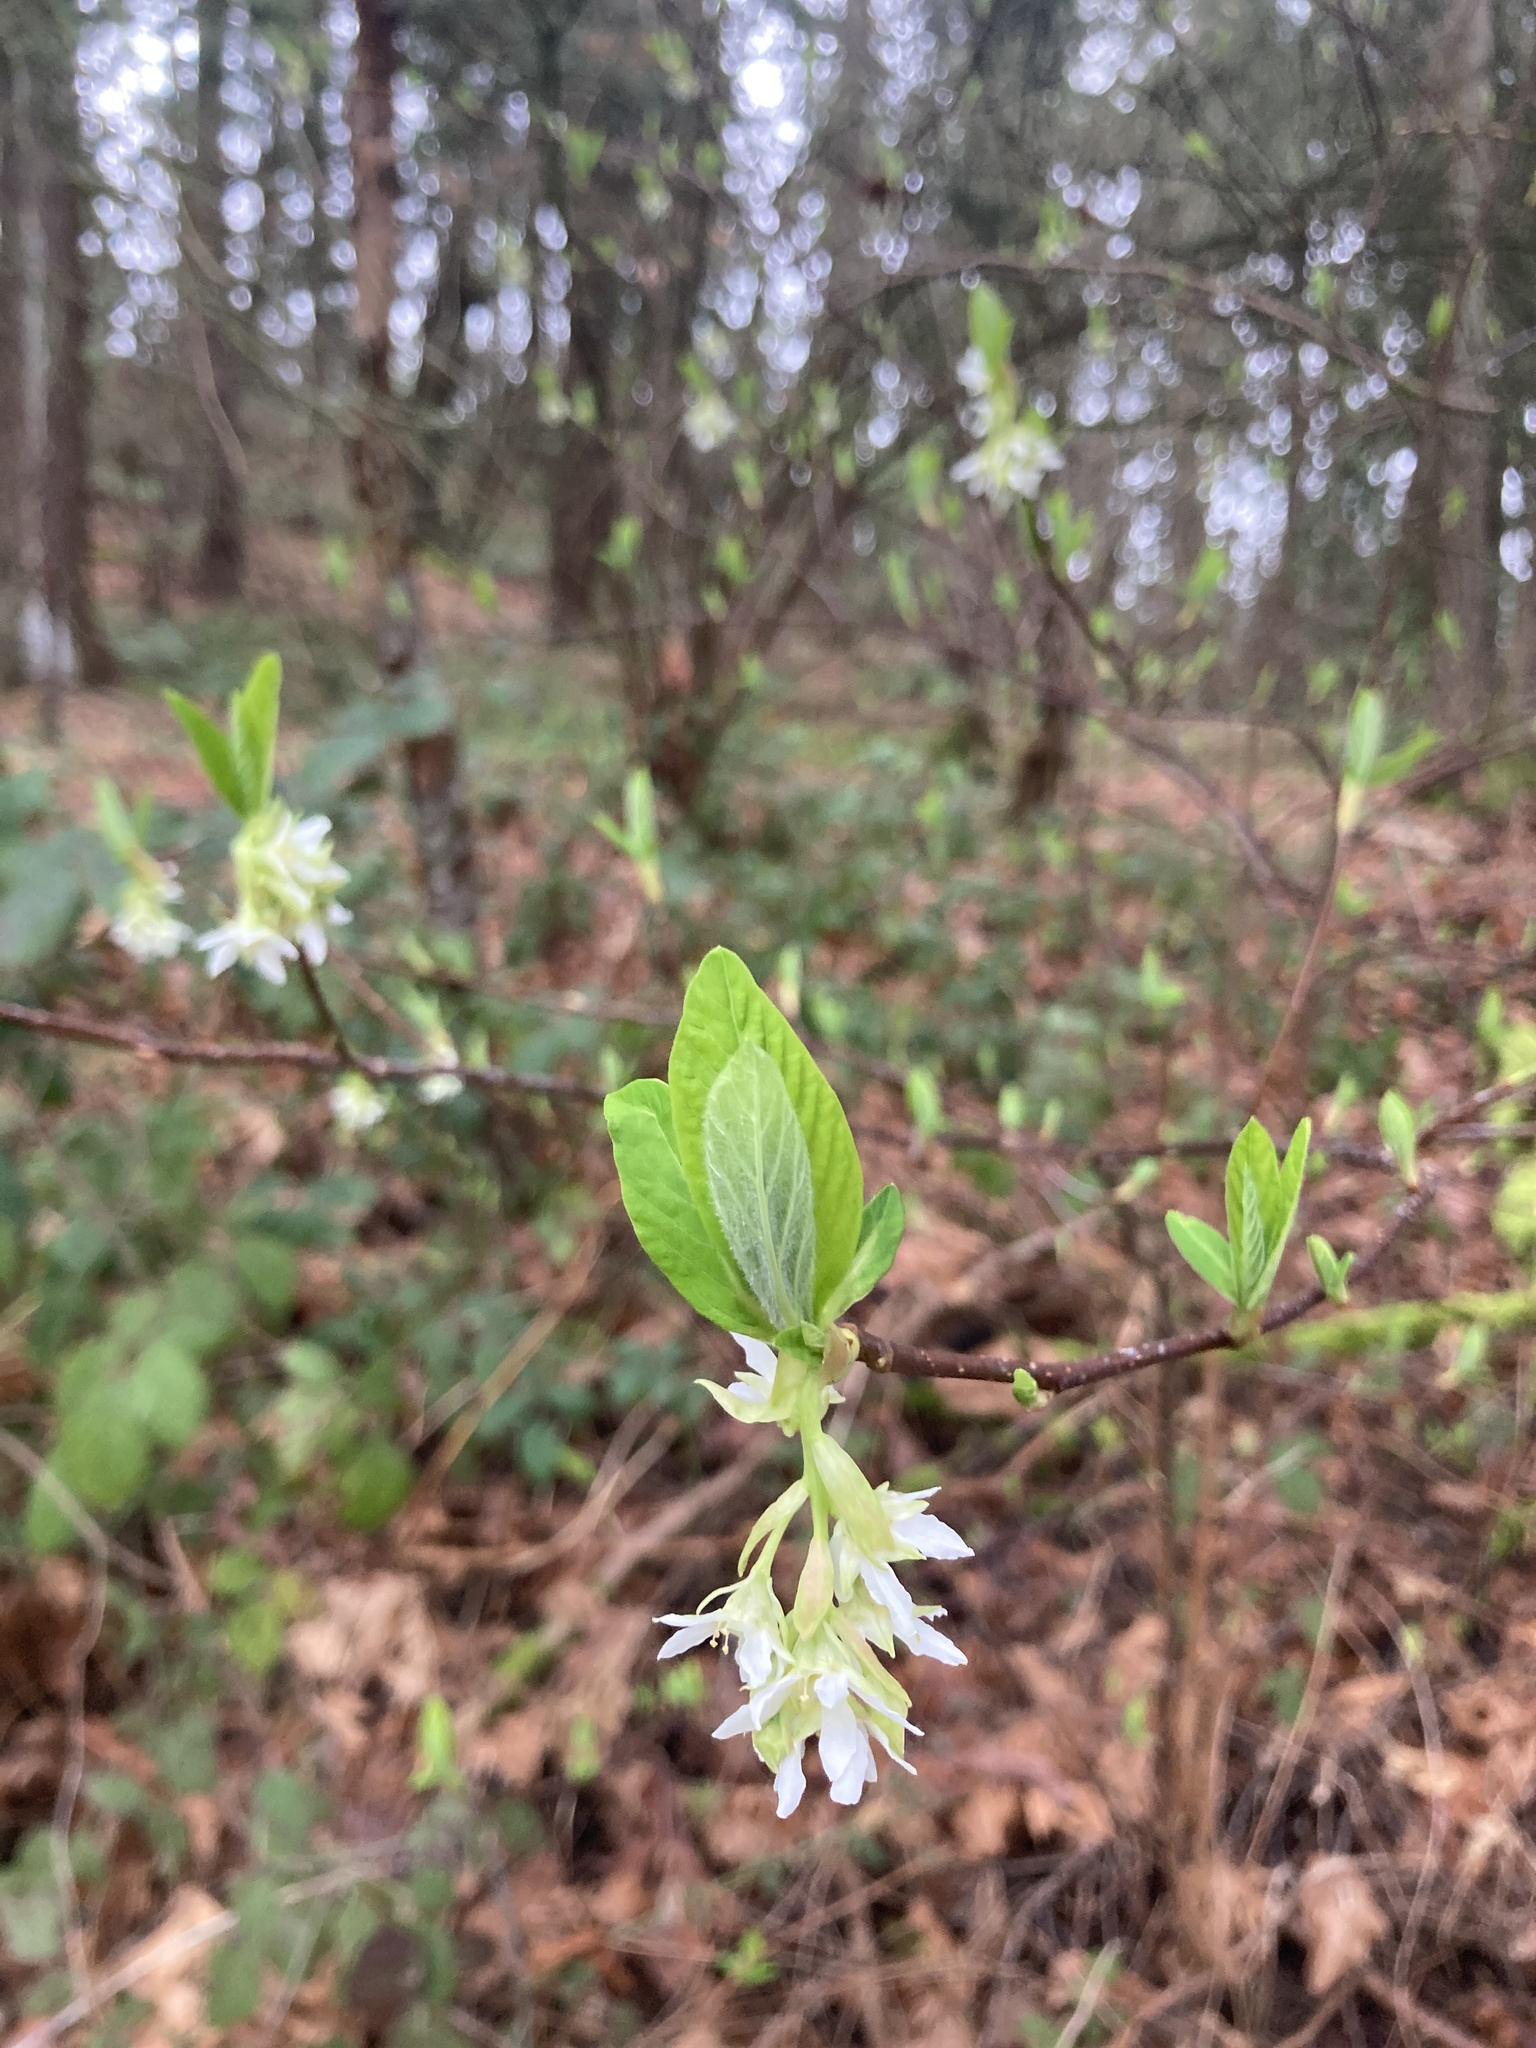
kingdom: Plantae
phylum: Tracheophyta
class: Magnoliopsida
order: Rosales
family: Rosaceae
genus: Oemleria
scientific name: Oemleria cerasiformis
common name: Osoberry
